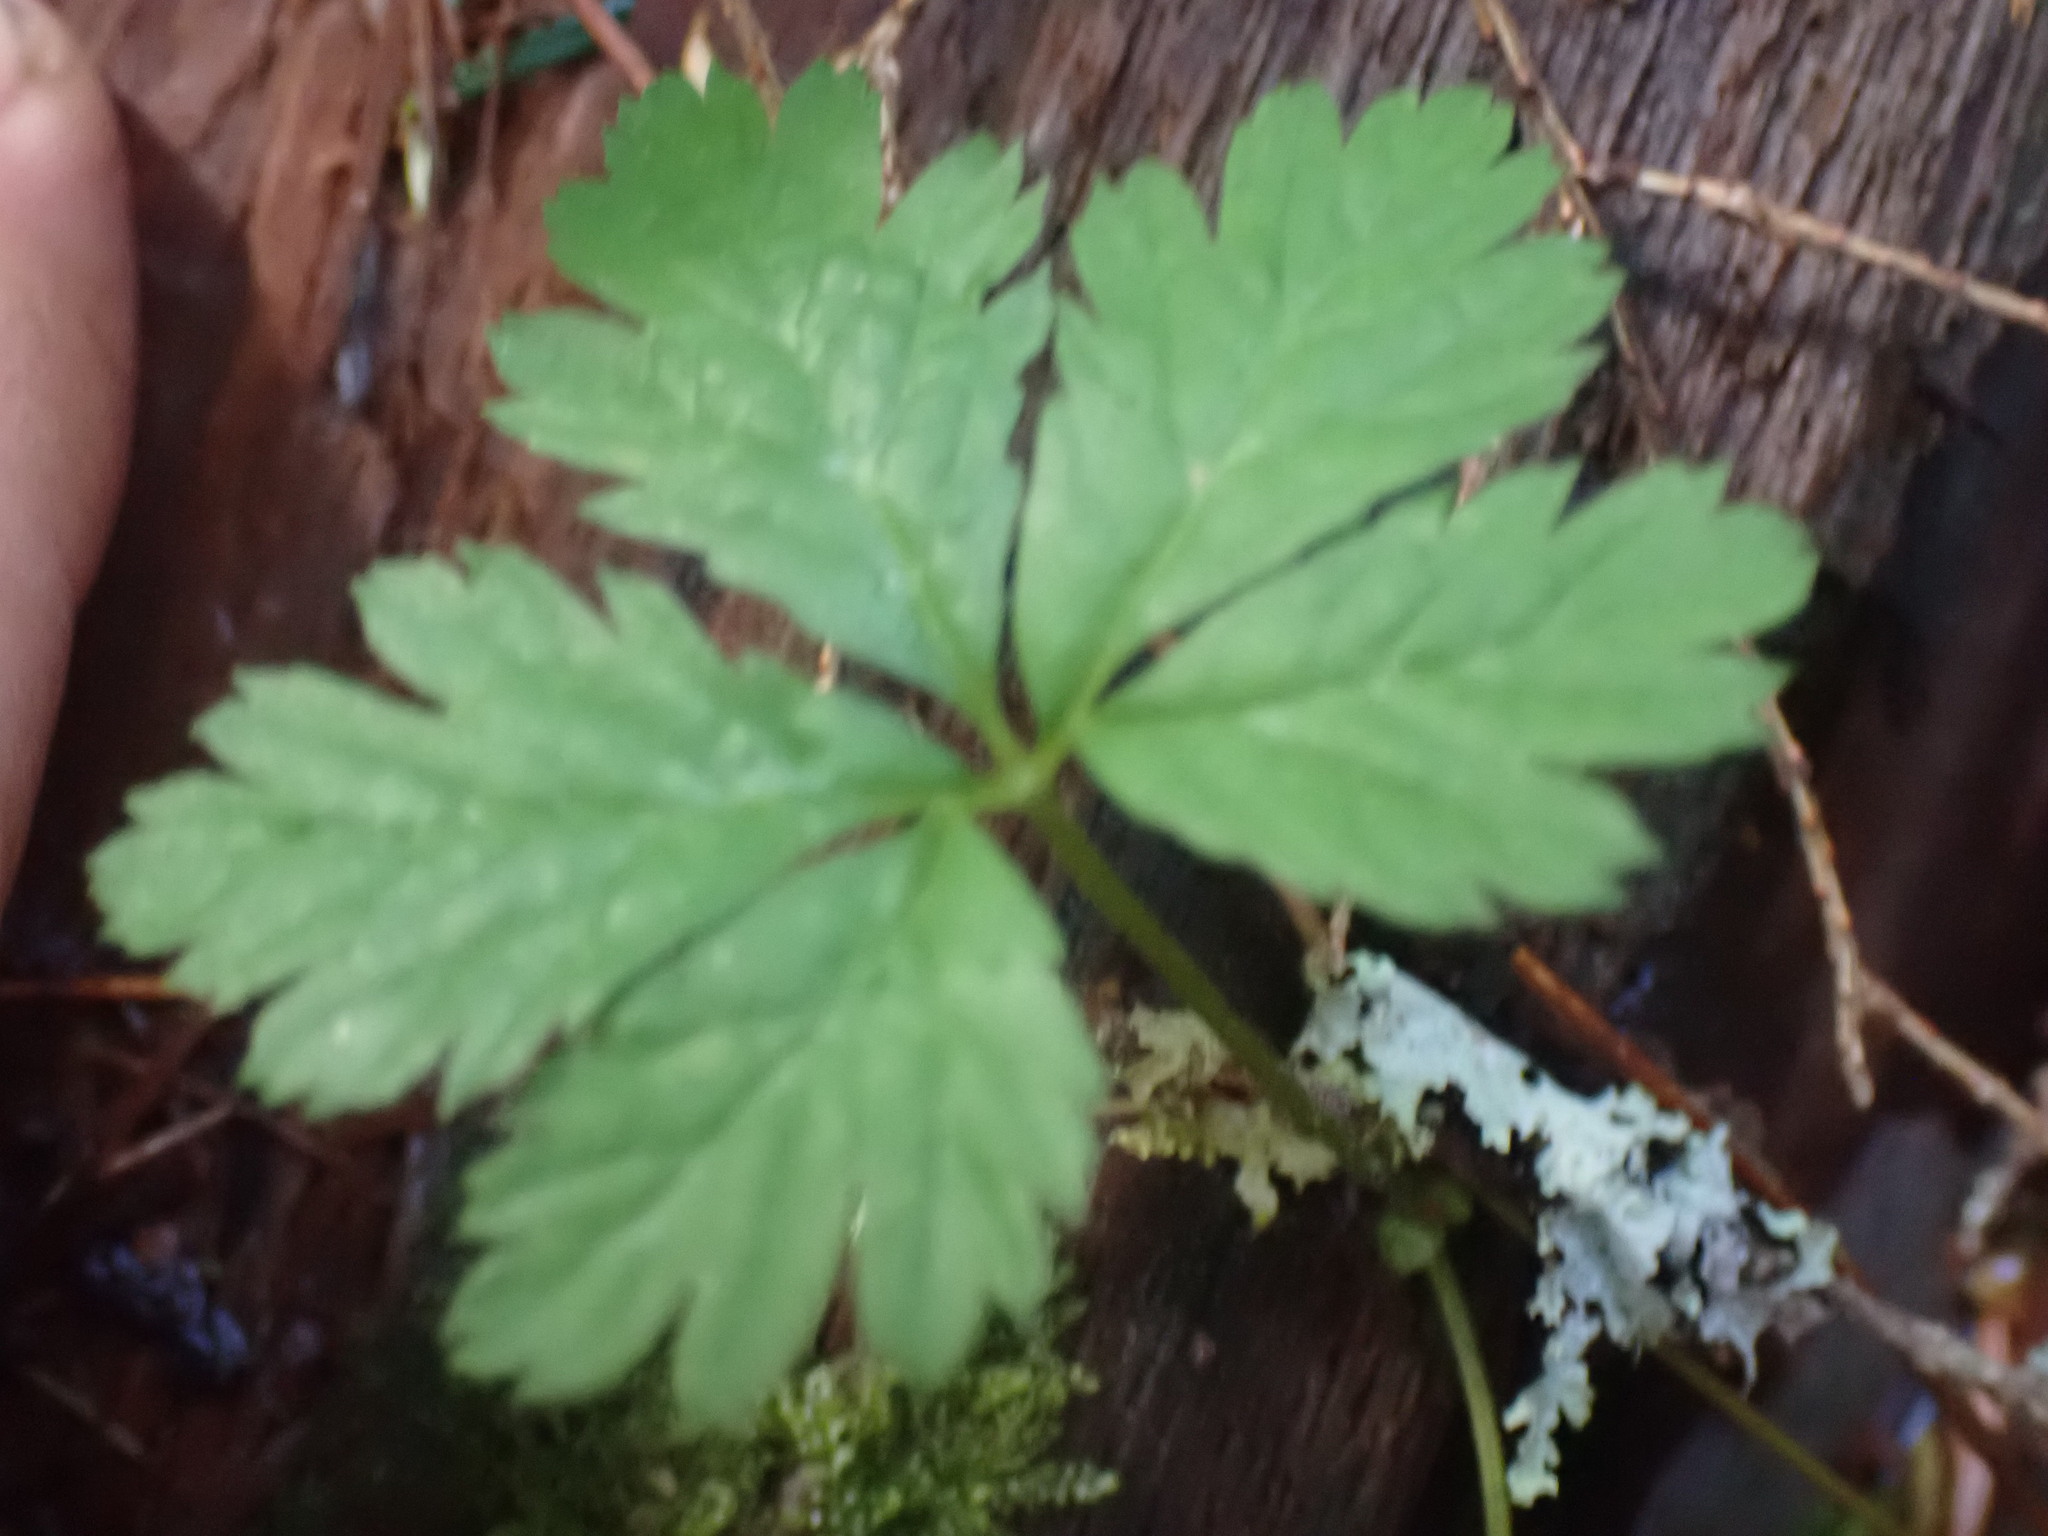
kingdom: Plantae
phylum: Tracheophyta
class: Magnoliopsida
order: Rosales
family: Rosaceae
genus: Rubus
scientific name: Rubus pedatus
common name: Creeping raspberry
